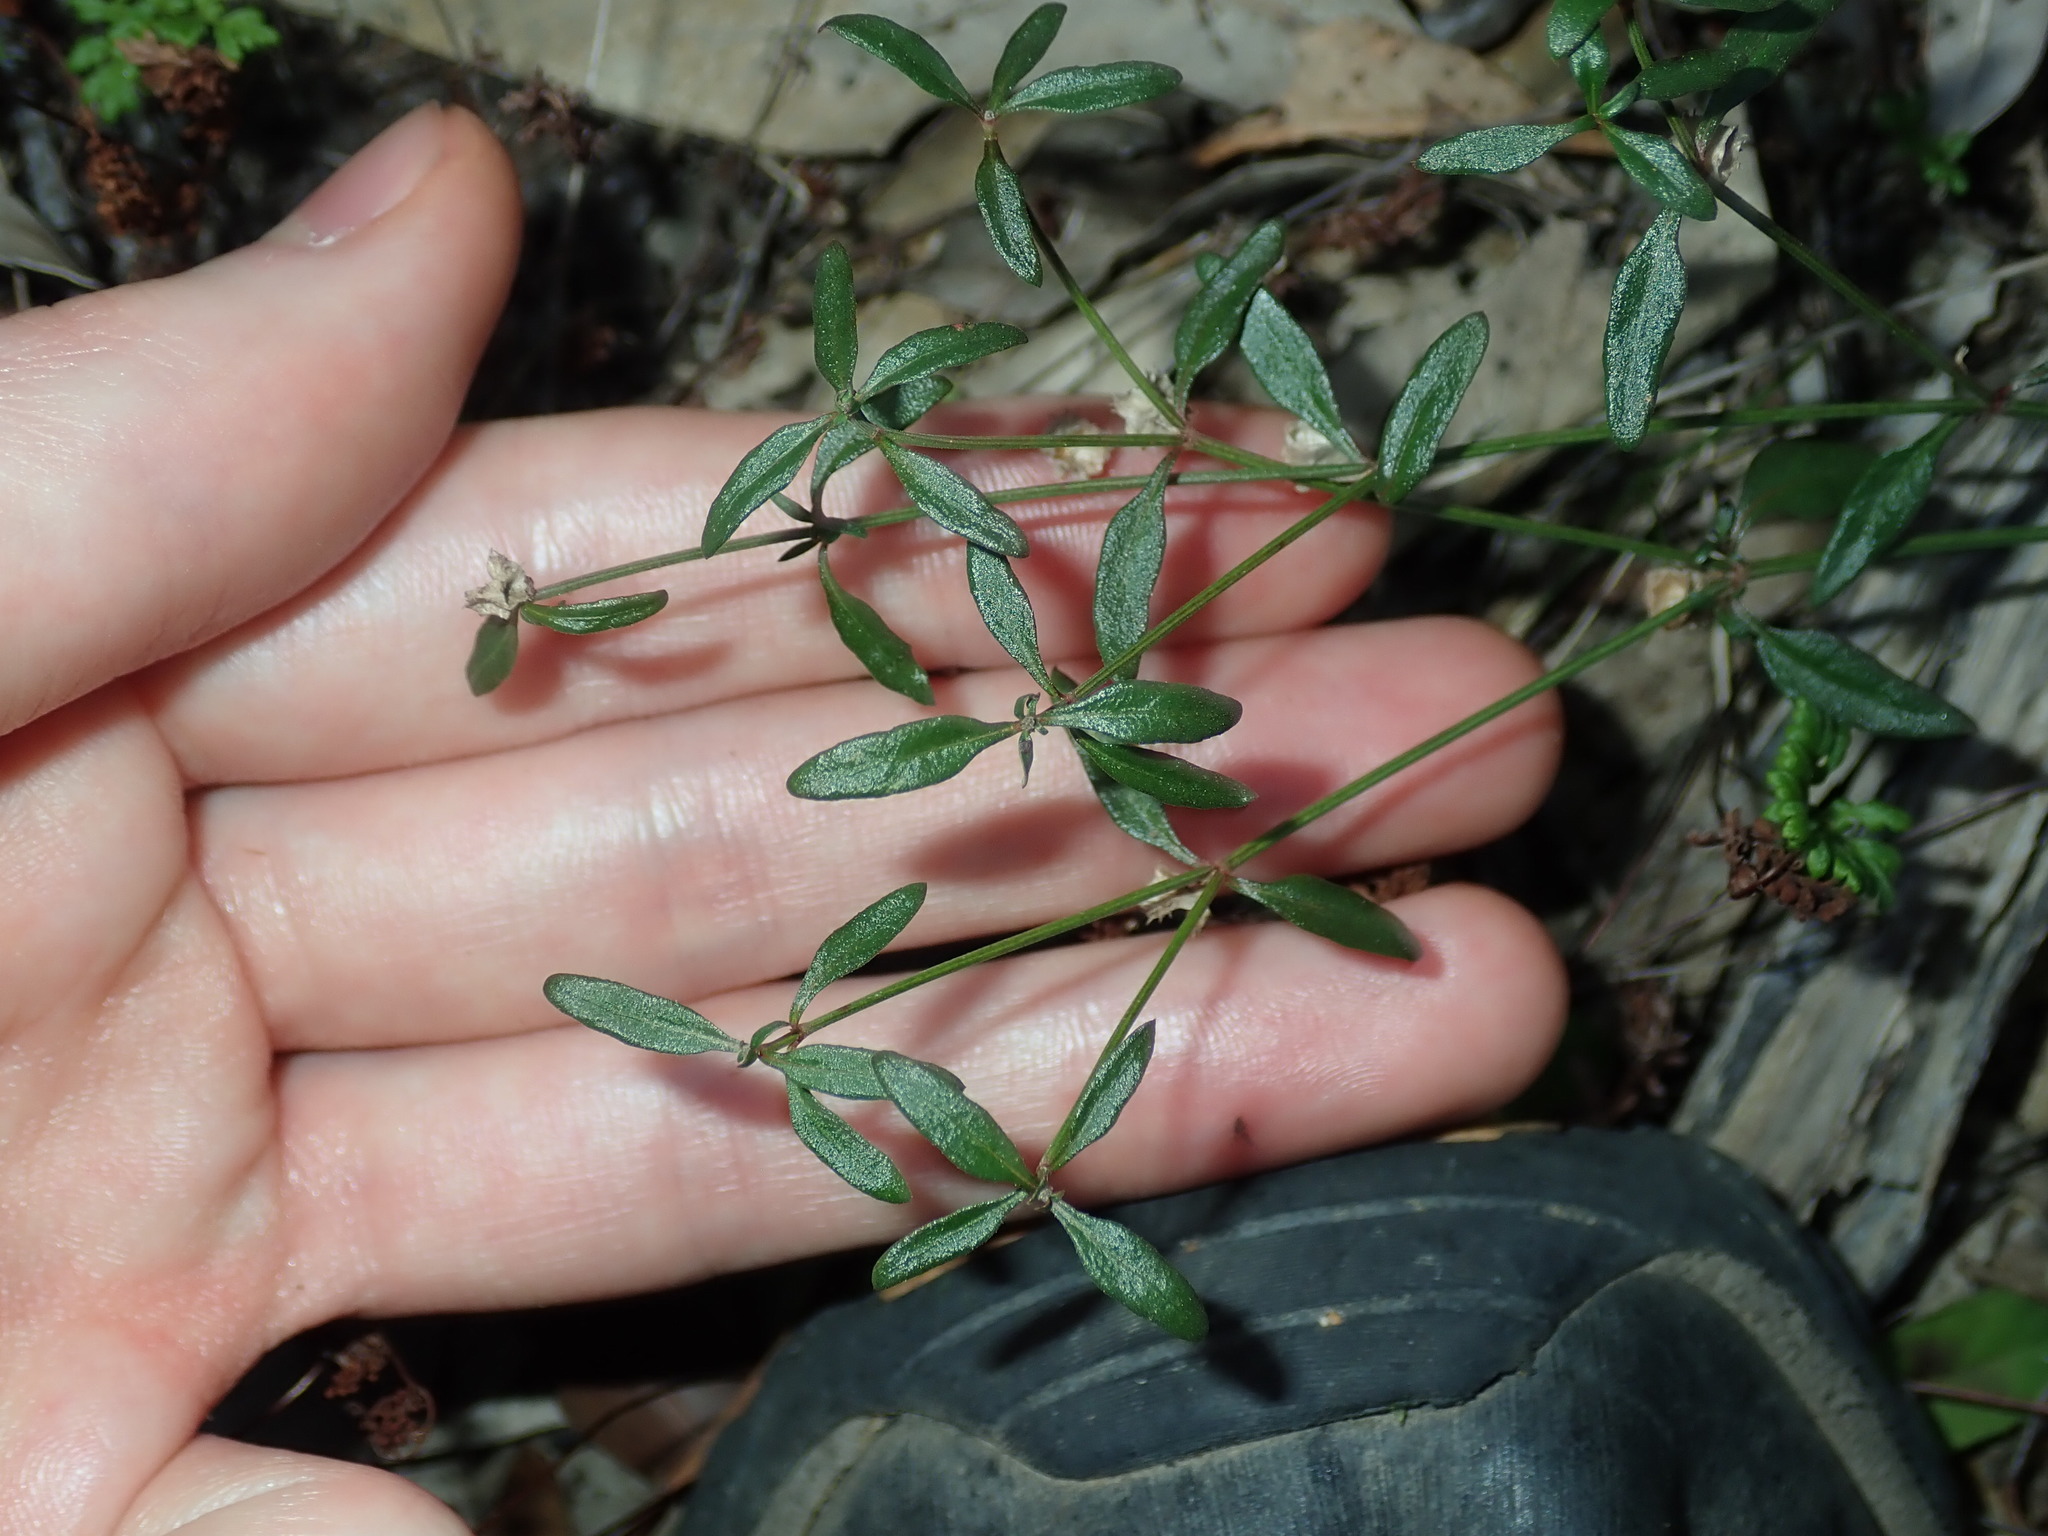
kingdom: Plantae
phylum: Tracheophyta
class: Magnoliopsida
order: Gentianales
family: Rubiaceae
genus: Opercularia
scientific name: Opercularia diphylla
